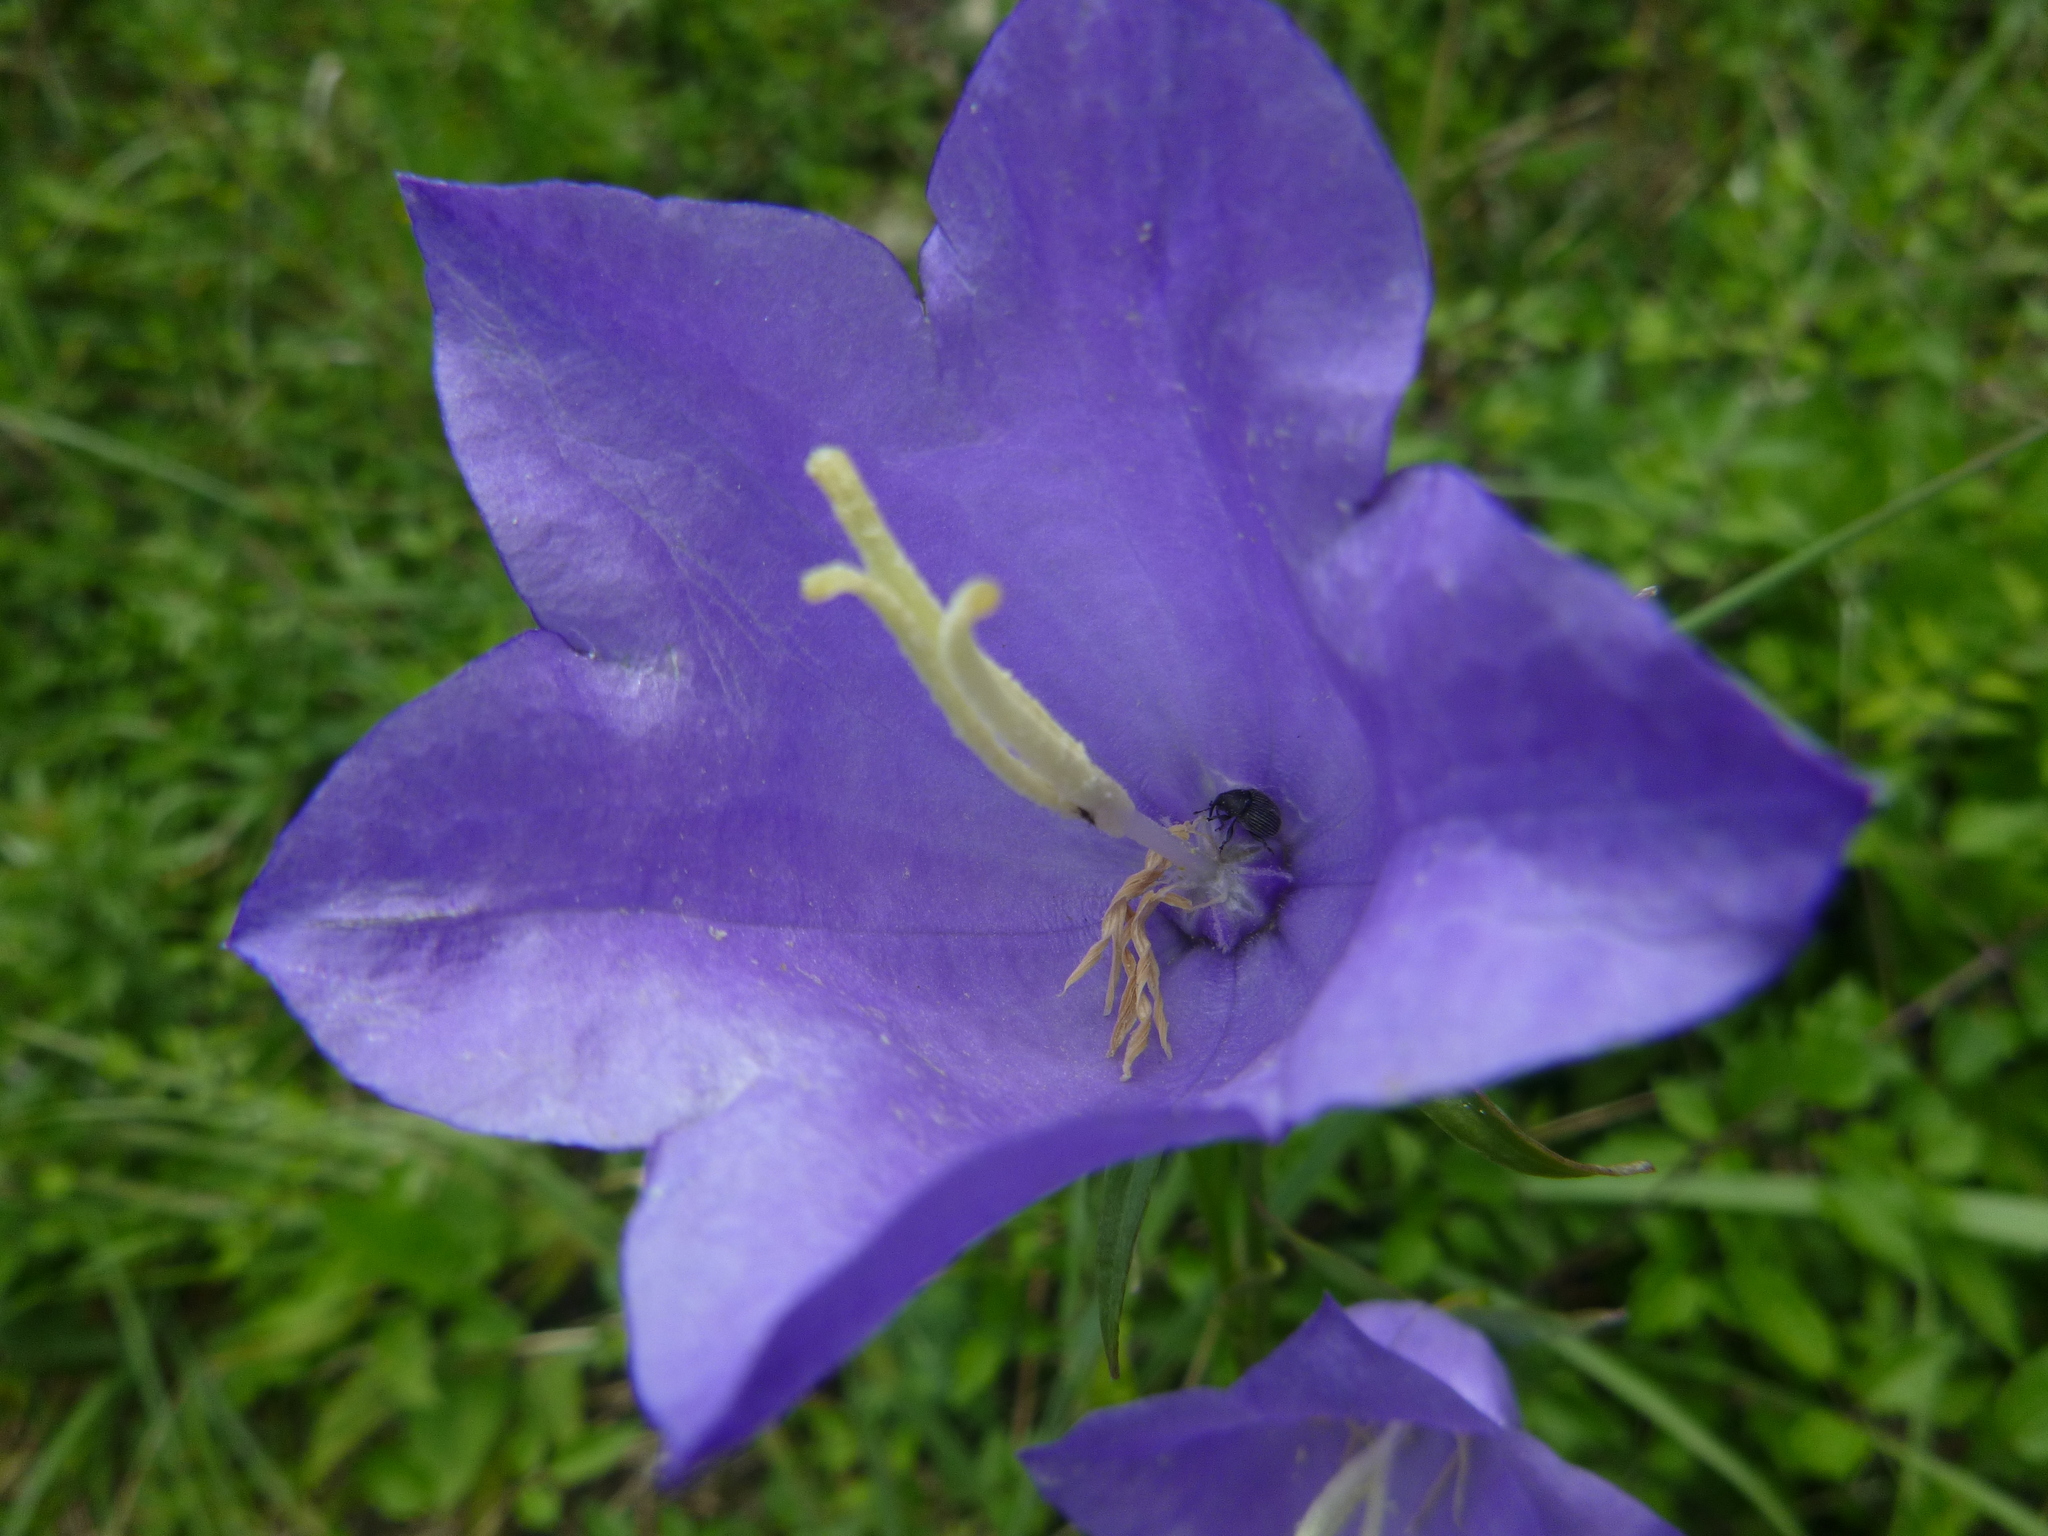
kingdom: Plantae
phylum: Tracheophyta
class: Magnoliopsida
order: Asterales
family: Campanulaceae
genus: Campanula
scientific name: Campanula persicifolia
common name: Peach-leaved bellflower
